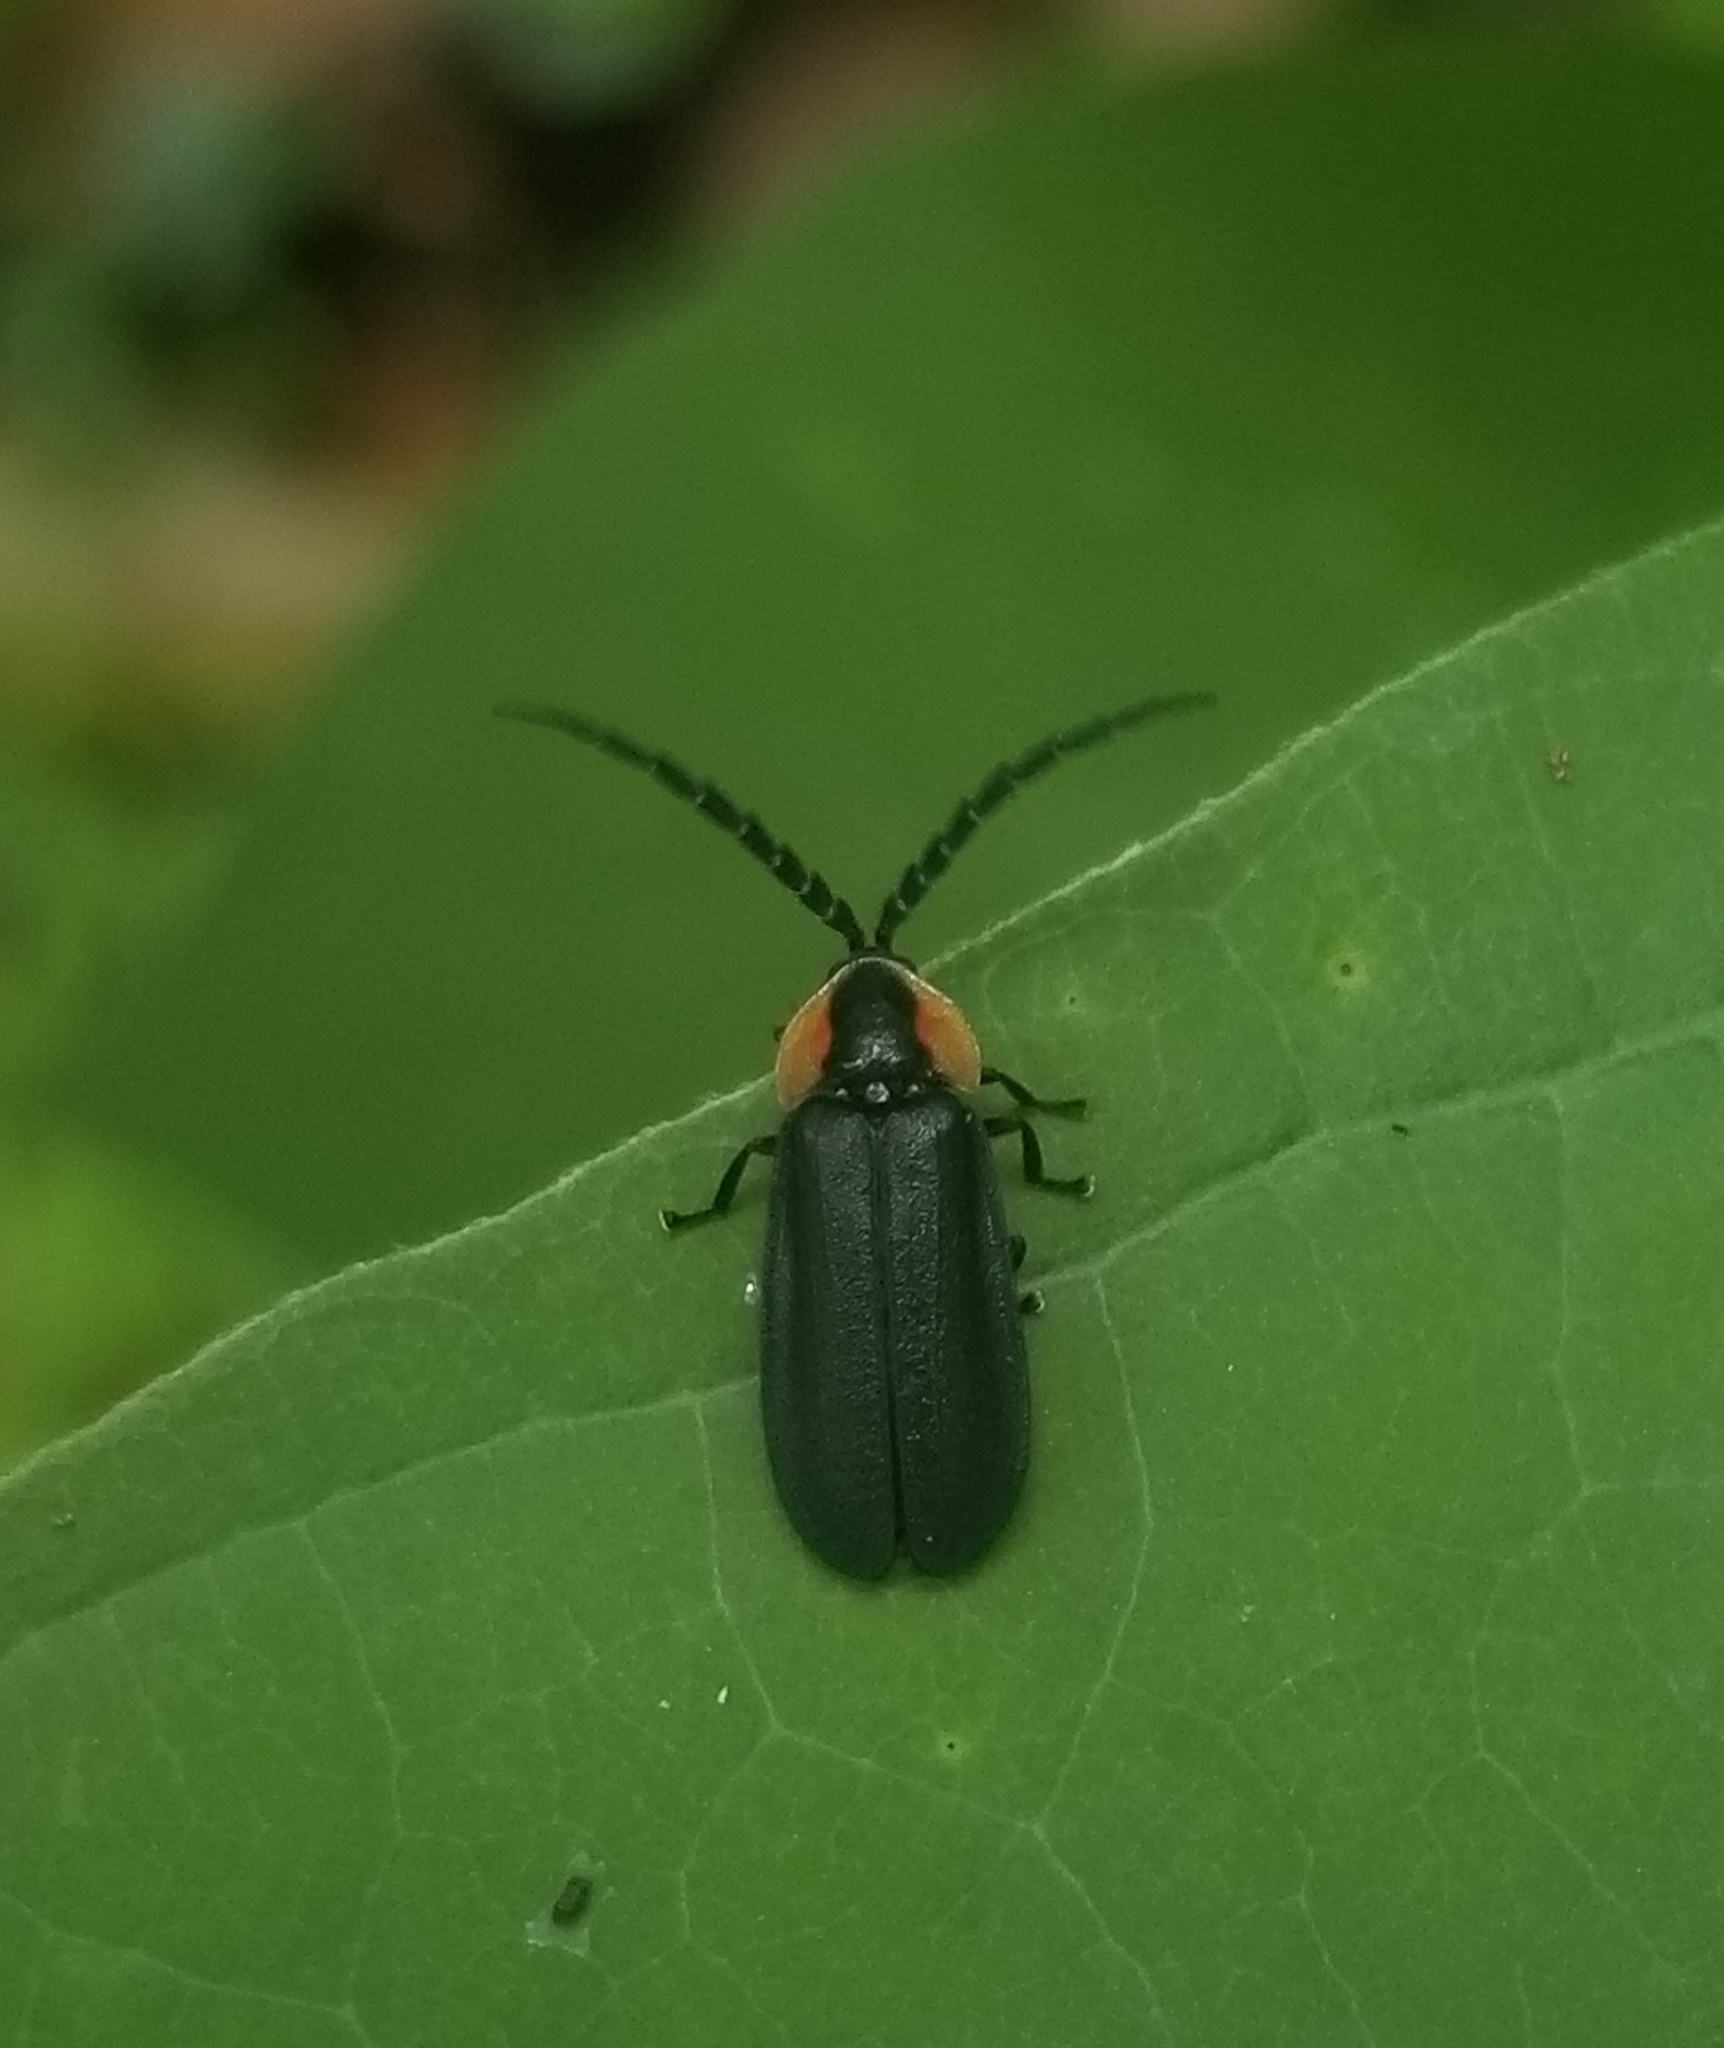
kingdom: Animalia
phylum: Arthropoda
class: Insecta
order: Coleoptera
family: Lampyridae
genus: Lucidota
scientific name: Lucidota atra
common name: Black firefly
